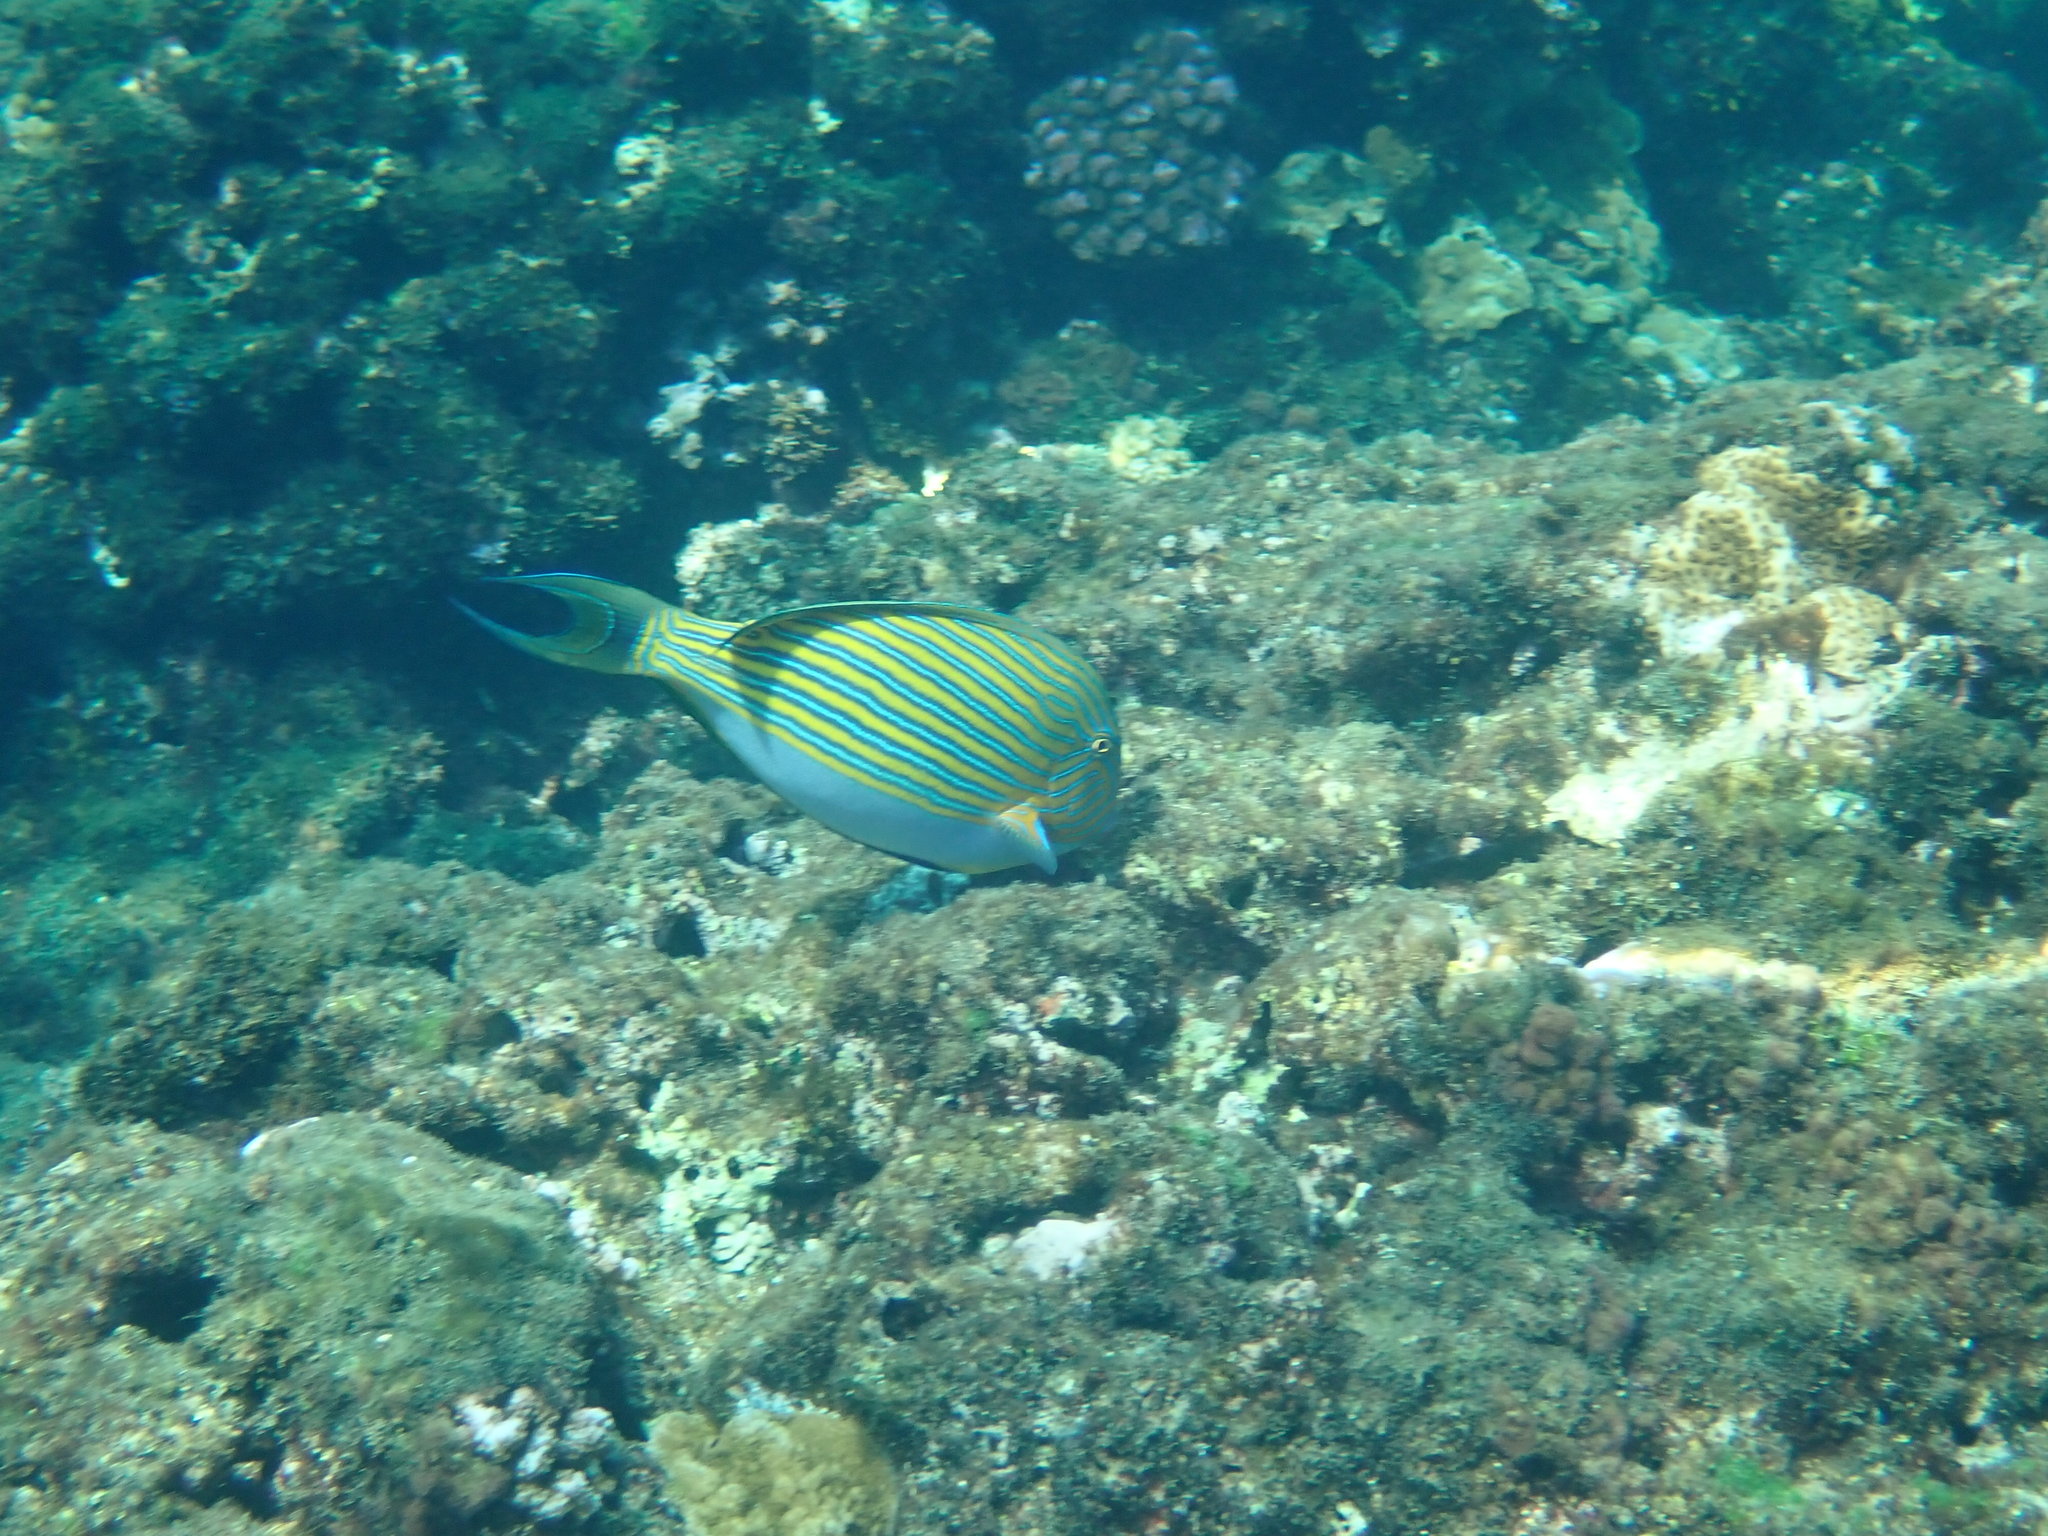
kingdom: Animalia
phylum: Chordata
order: Perciformes
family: Acanthuridae
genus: Acanthurus
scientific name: Acanthurus lineatus
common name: Striped surgeonfish
